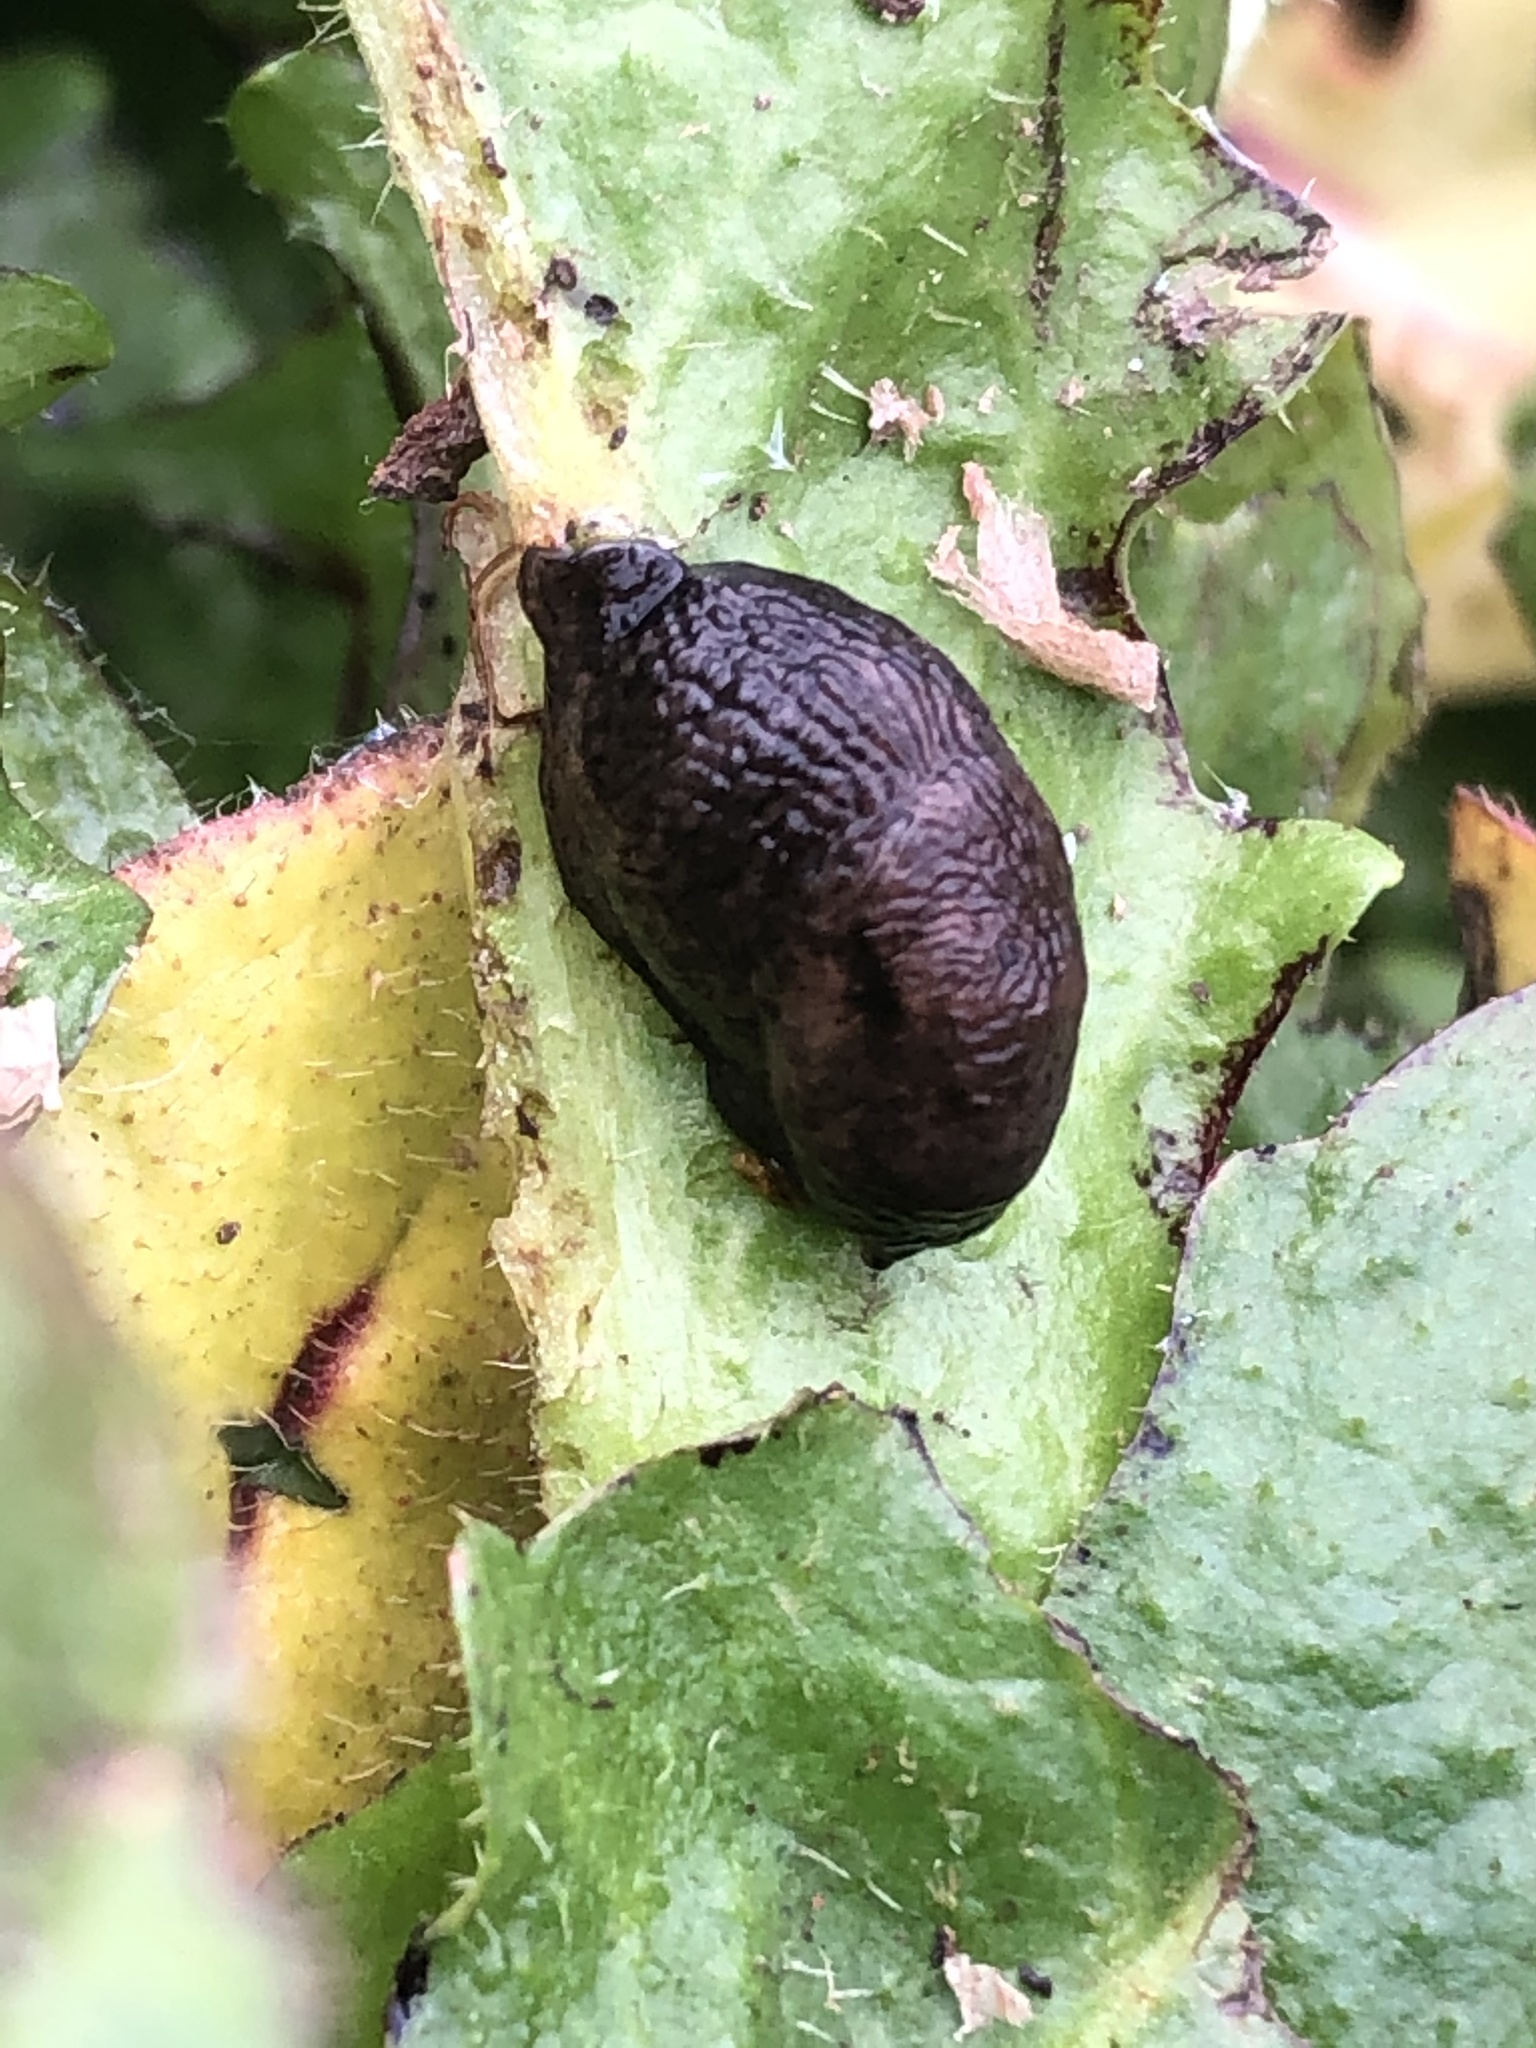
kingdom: Animalia
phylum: Mollusca
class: Gastropoda
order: Stylommatophora
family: Agriolimacidae
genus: Deroceras
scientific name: Deroceras reticulatum
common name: Gray field slug
